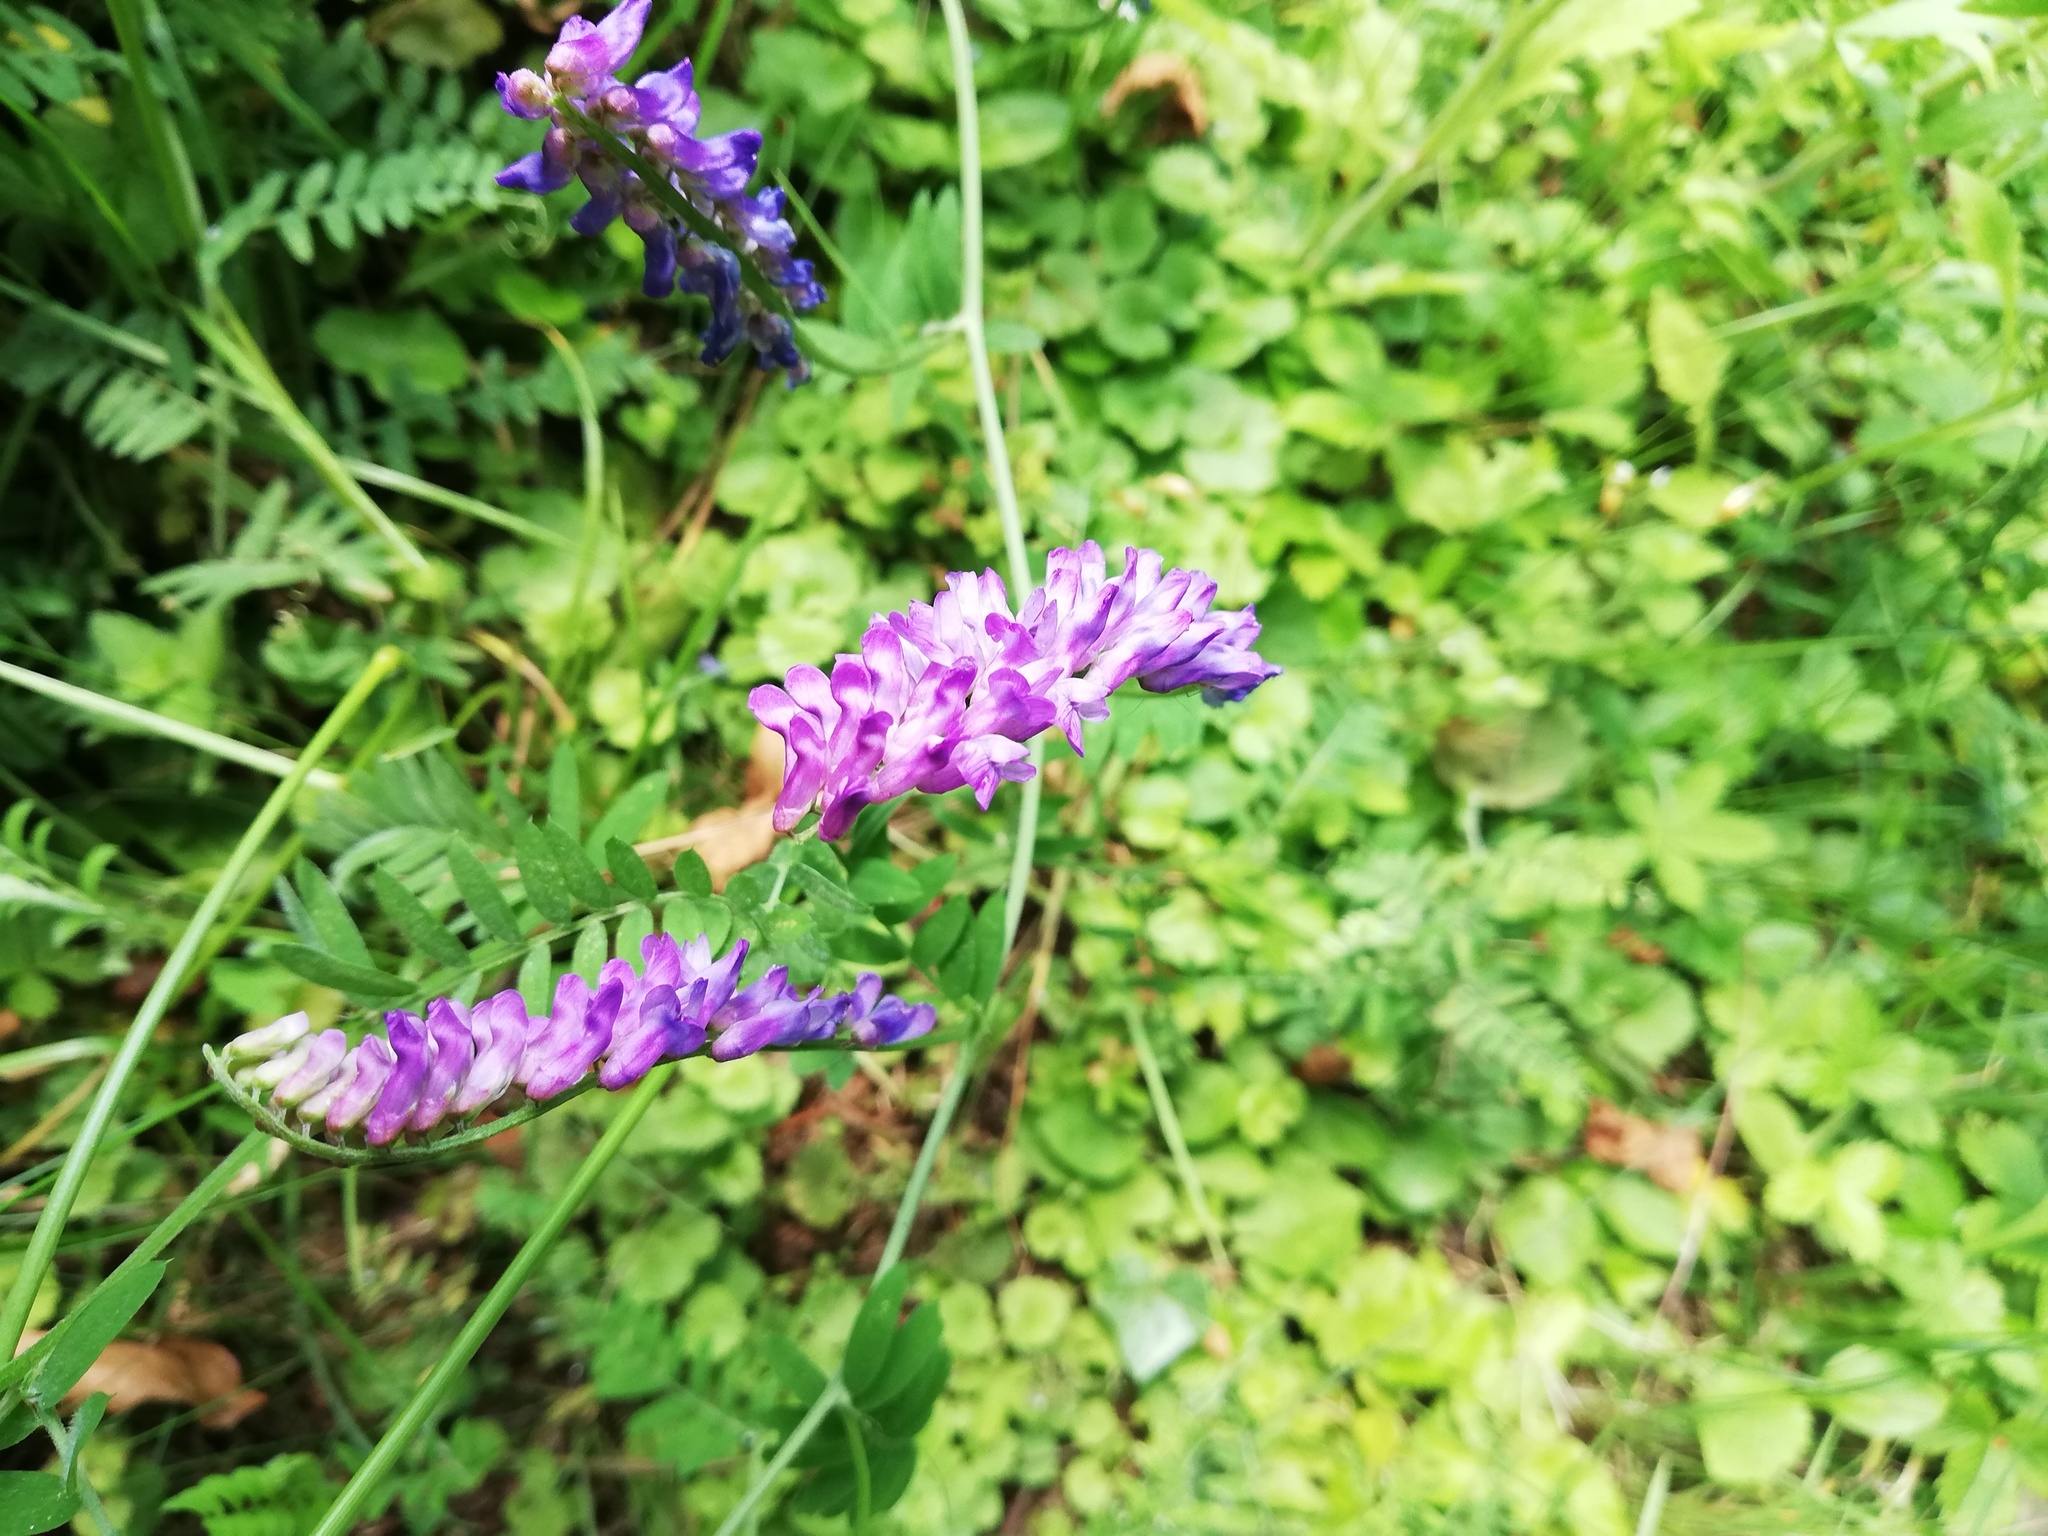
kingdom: Plantae
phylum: Tracheophyta
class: Magnoliopsida
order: Fabales
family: Fabaceae
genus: Vicia
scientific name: Vicia cracca
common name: Bird vetch
